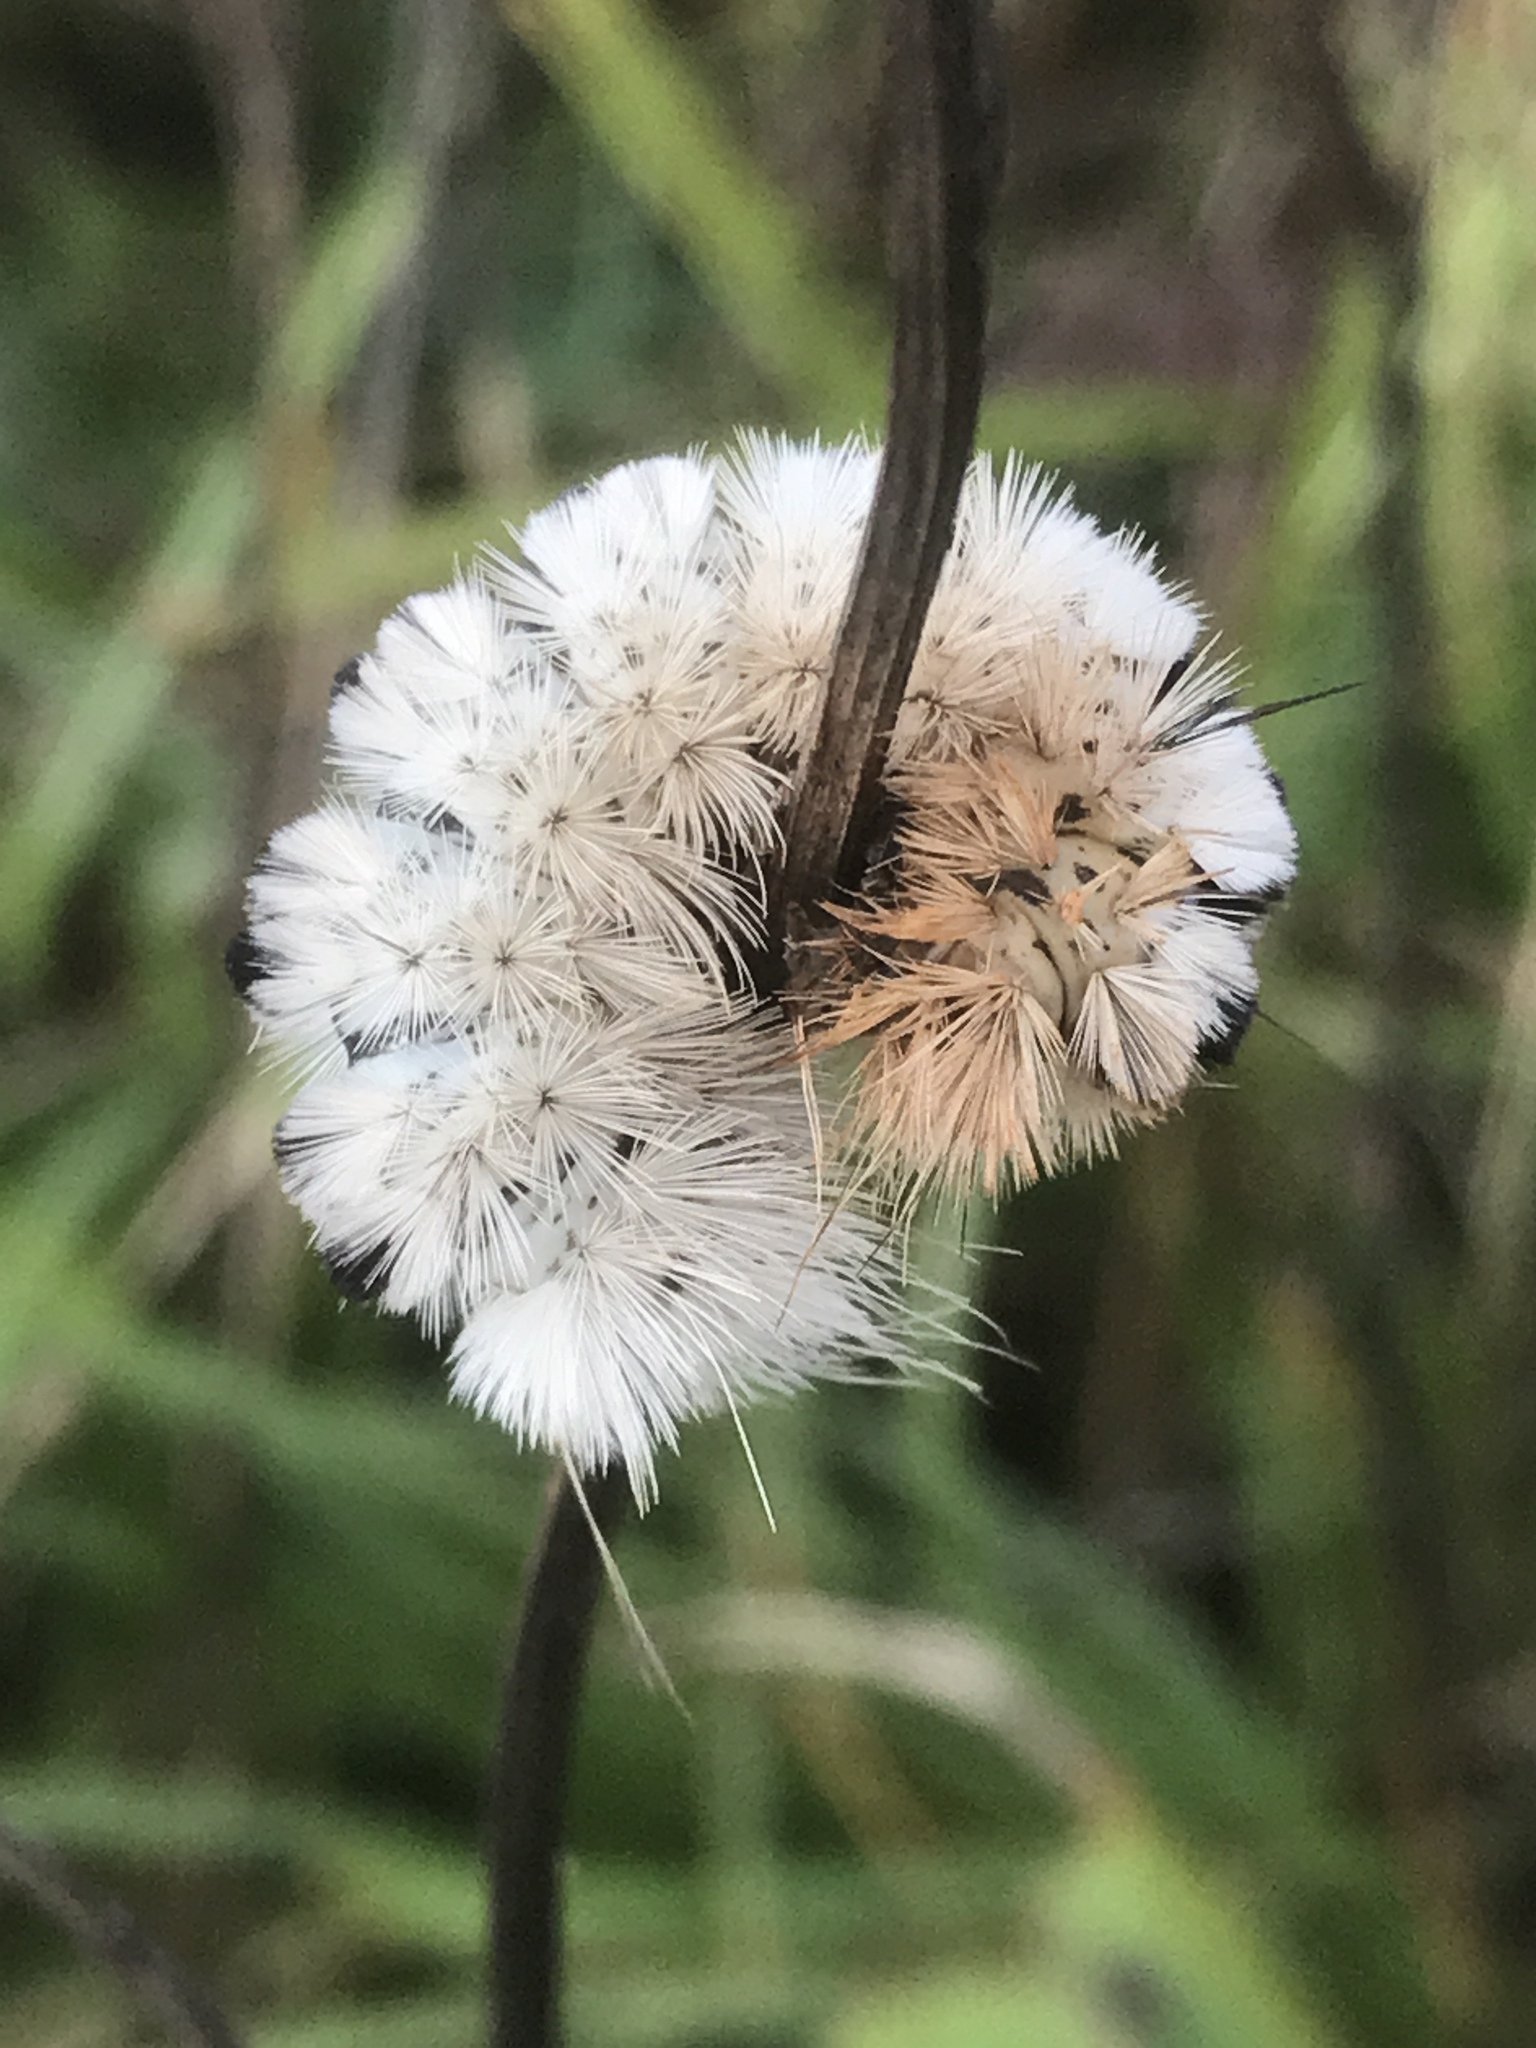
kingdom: Animalia
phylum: Arthropoda
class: Insecta
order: Lepidoptera
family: Erebidae
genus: Lophocampa
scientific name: Lophocampa caryae
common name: Hickory tussock moth
